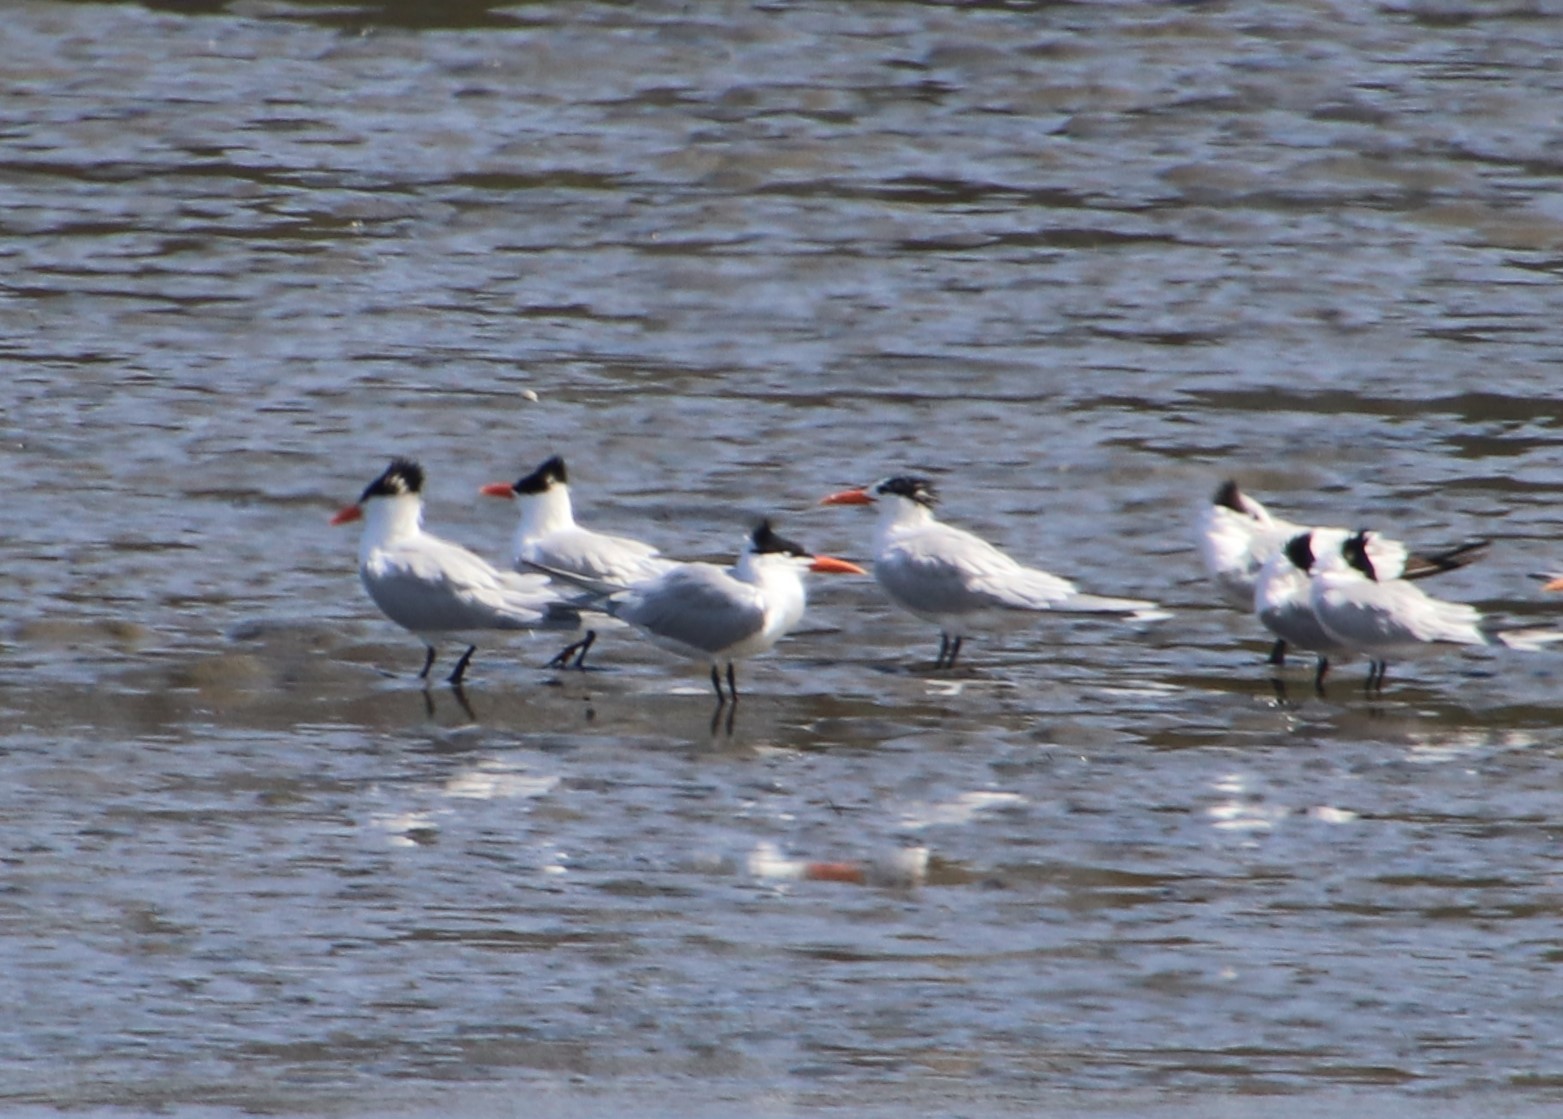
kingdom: Animalia
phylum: Chordata
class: Aves
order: Charadriiformes
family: Laridae
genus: Thalasseus
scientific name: Thalasseus maximus
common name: Royal tern
